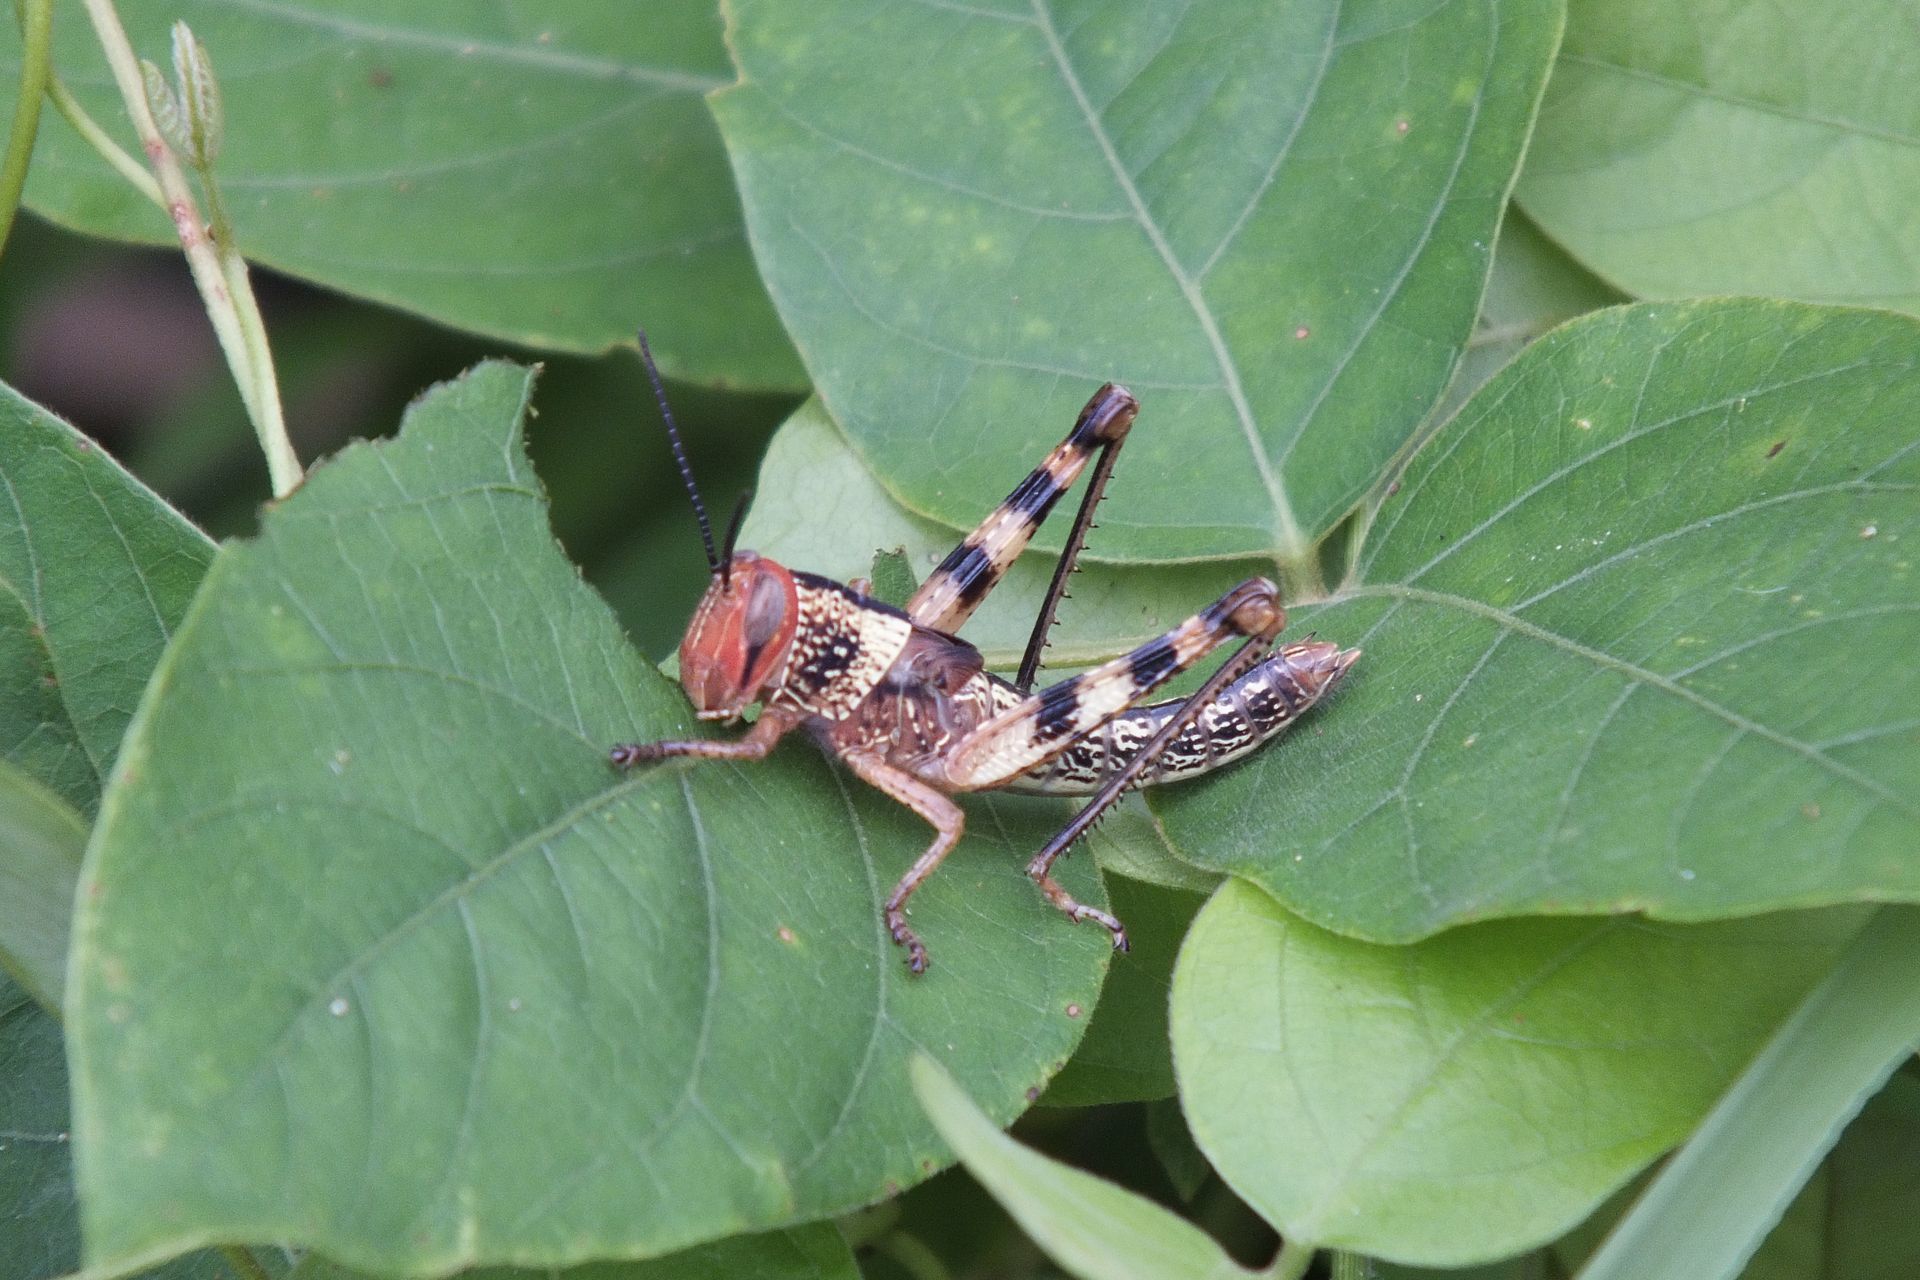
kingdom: Animalia
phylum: Arthropoda
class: Insecta
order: Orthoptera
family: Acrididae
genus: Valanga
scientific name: Valanga irregularis
